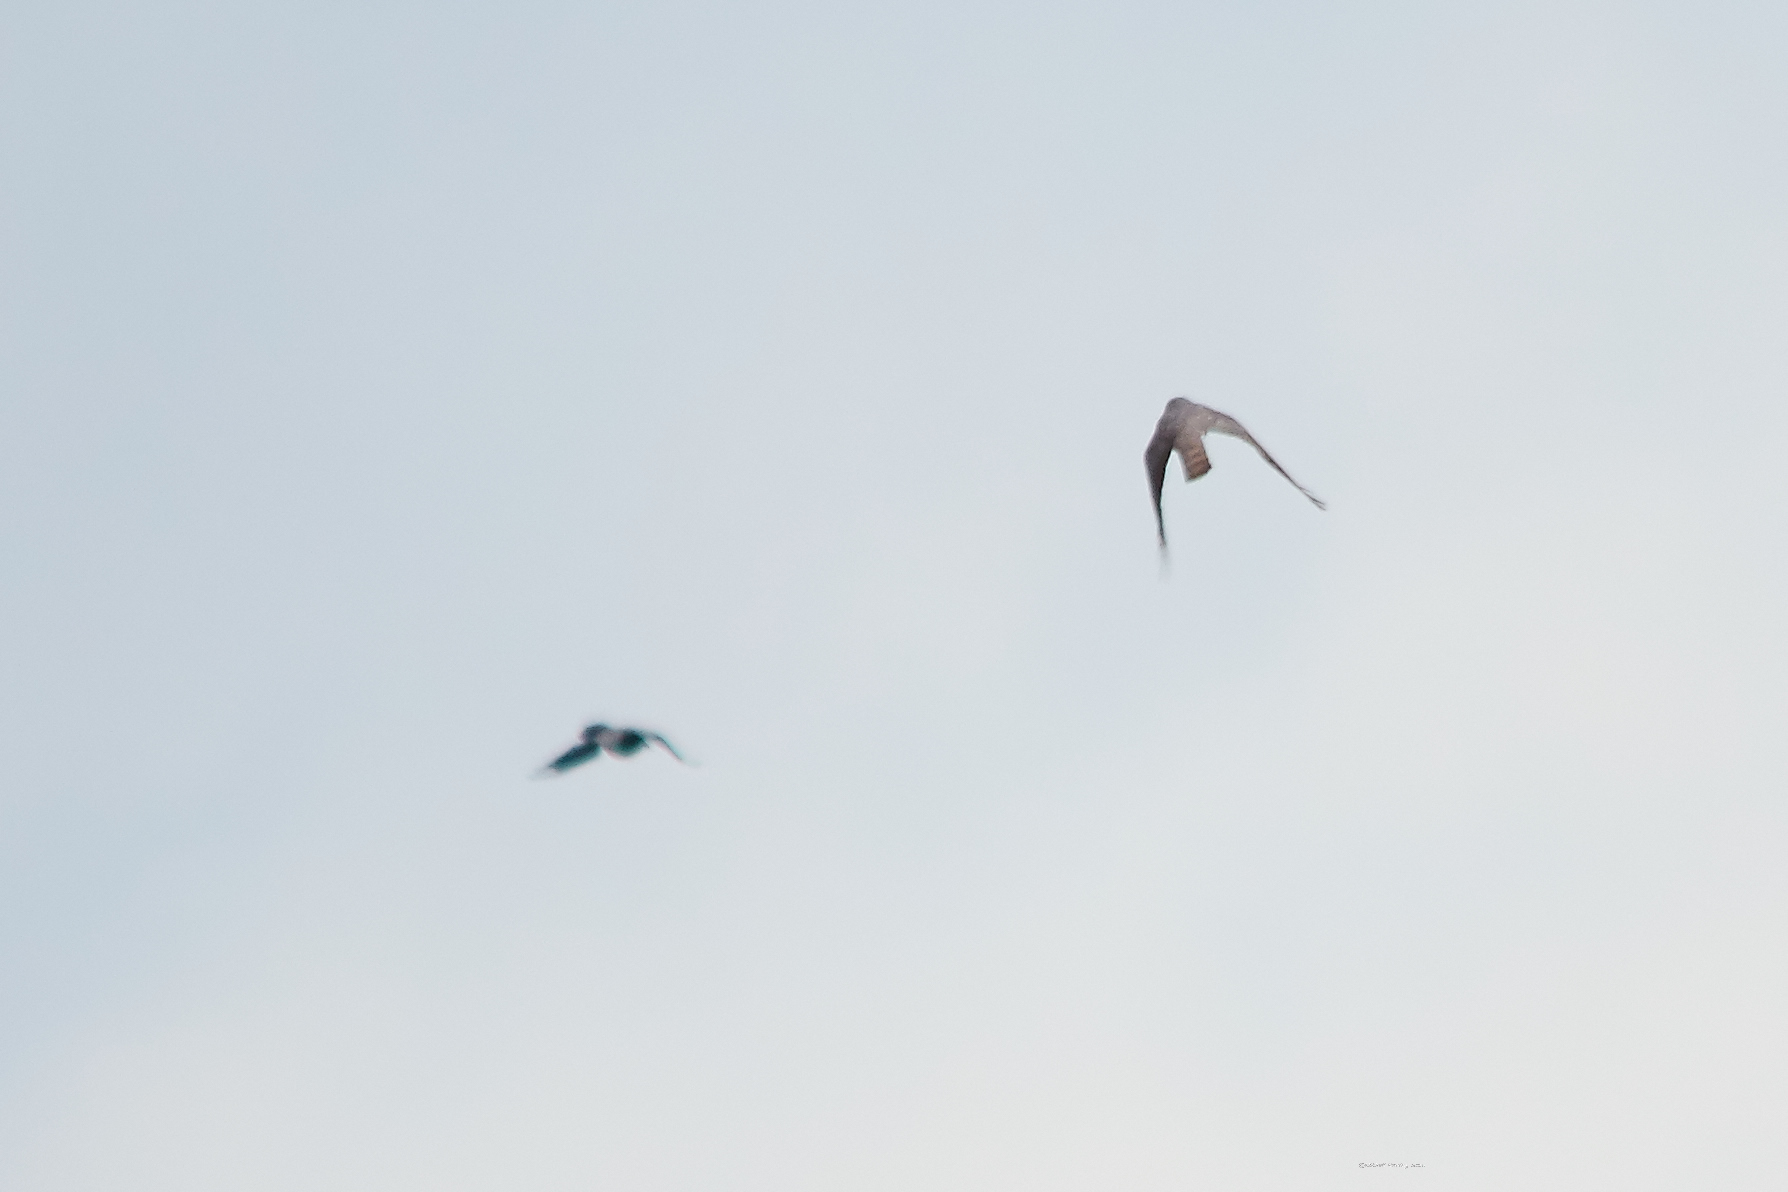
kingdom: Animalia
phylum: Chordata
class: Aves
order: Accipitriformes
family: Accipitridae
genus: Accipiter
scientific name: Accipiter nisus
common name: Eurasian sparrowhawk
